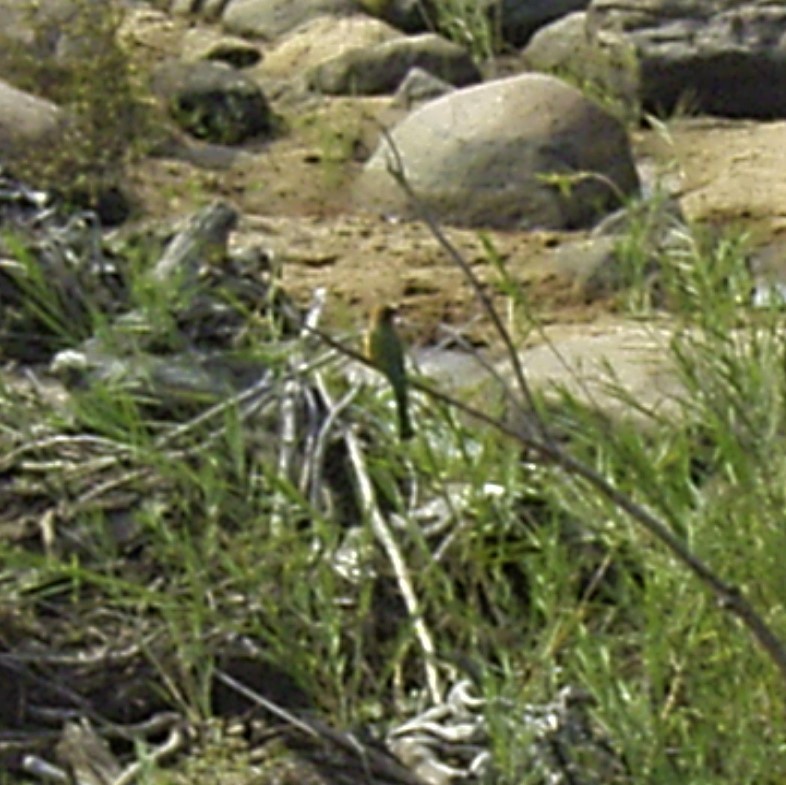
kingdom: Animalia
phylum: Chordata
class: Aves
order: Coraciiformes
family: Meropidae
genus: Merops
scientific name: Merops bullockoides
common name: White-fronted bee-eater
